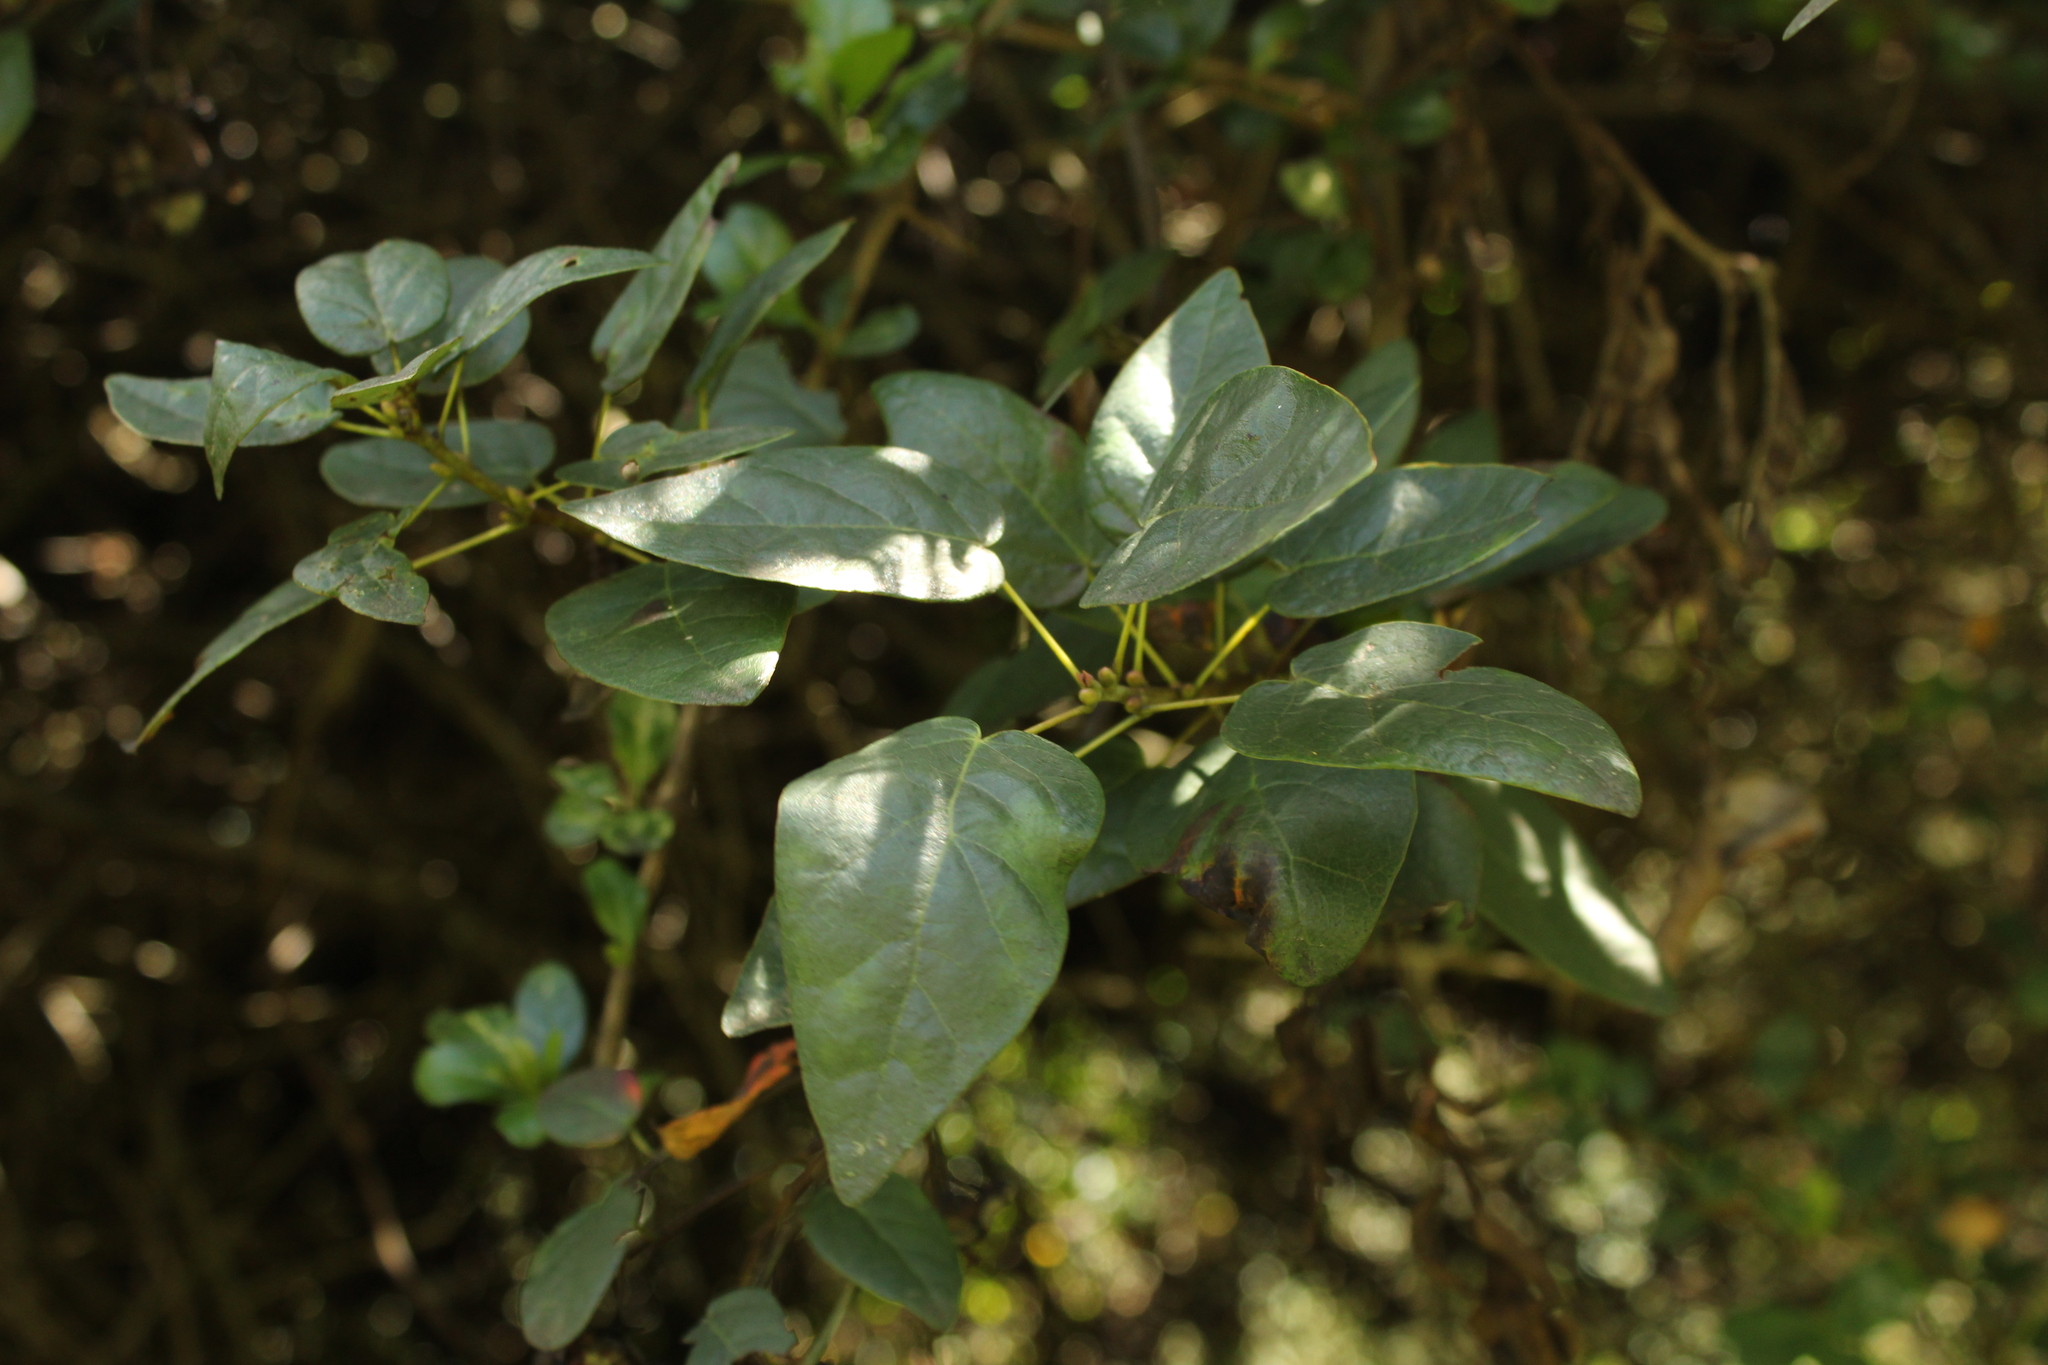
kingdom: Plantae
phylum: Tracheophyta
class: Magnoliopsida
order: Oxalidales
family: Elaeocarpaceae
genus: Vallea
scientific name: Vallea stipularis
